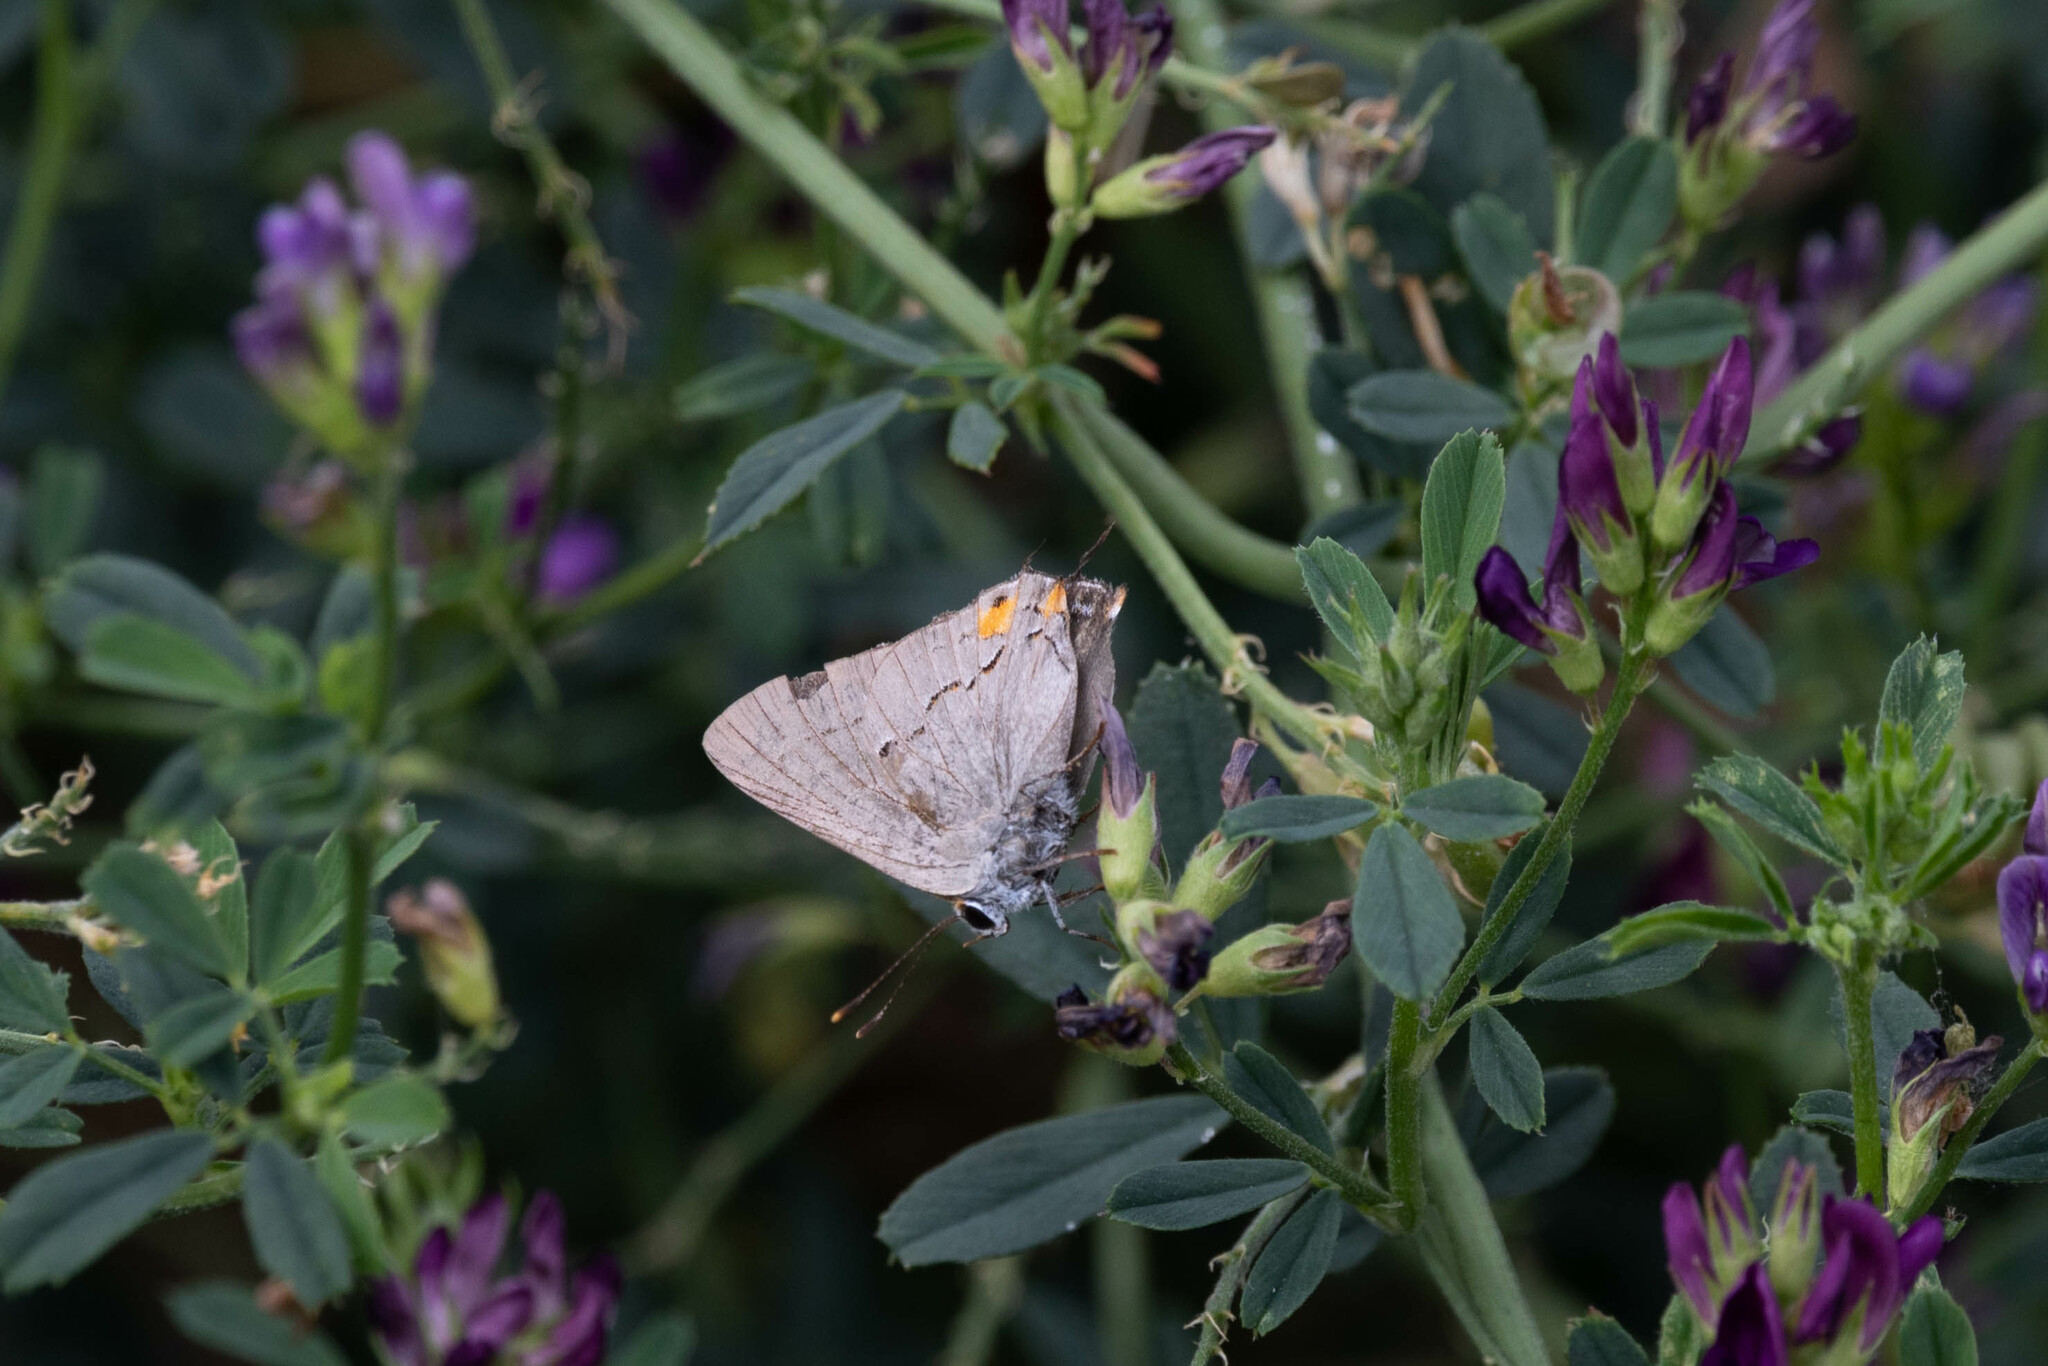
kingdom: Animalia
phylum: Arthropoda
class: Insecta
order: Lepidoptera
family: Lycaenidae
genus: Strymon
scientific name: Strymon melinus
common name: Gray hairstreak
